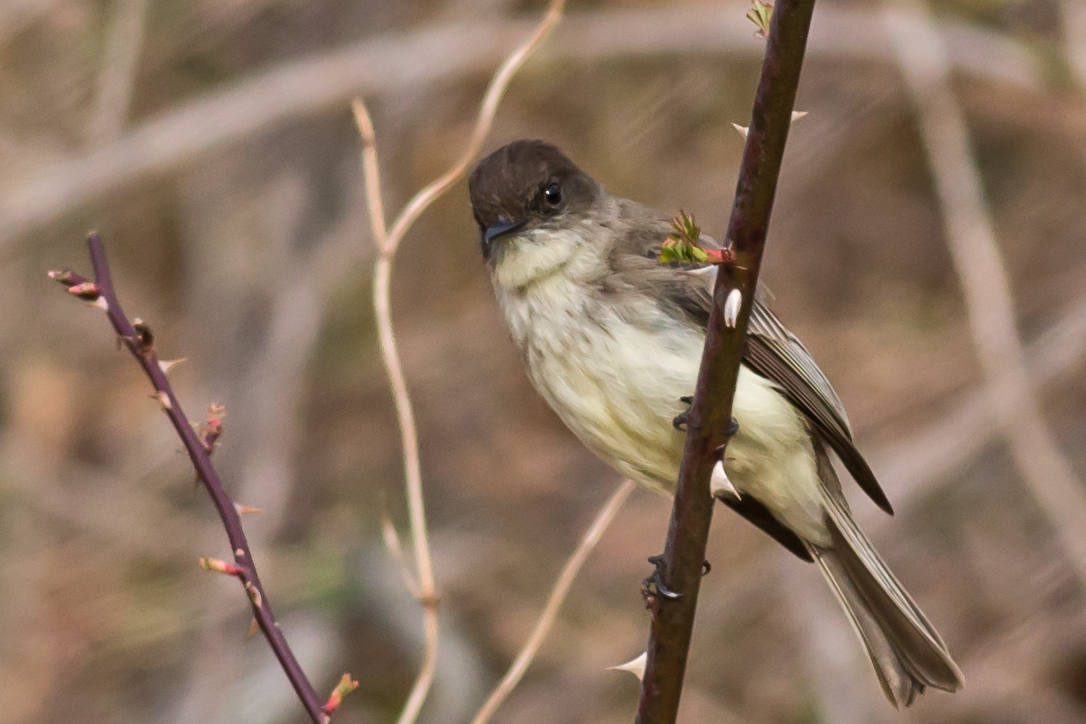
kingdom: Animalia
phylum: Chordata
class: Aves
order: Passeriformes
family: Tyrannidae
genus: Sayornis
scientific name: Sayornis phoebe
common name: Eastern phoebe
